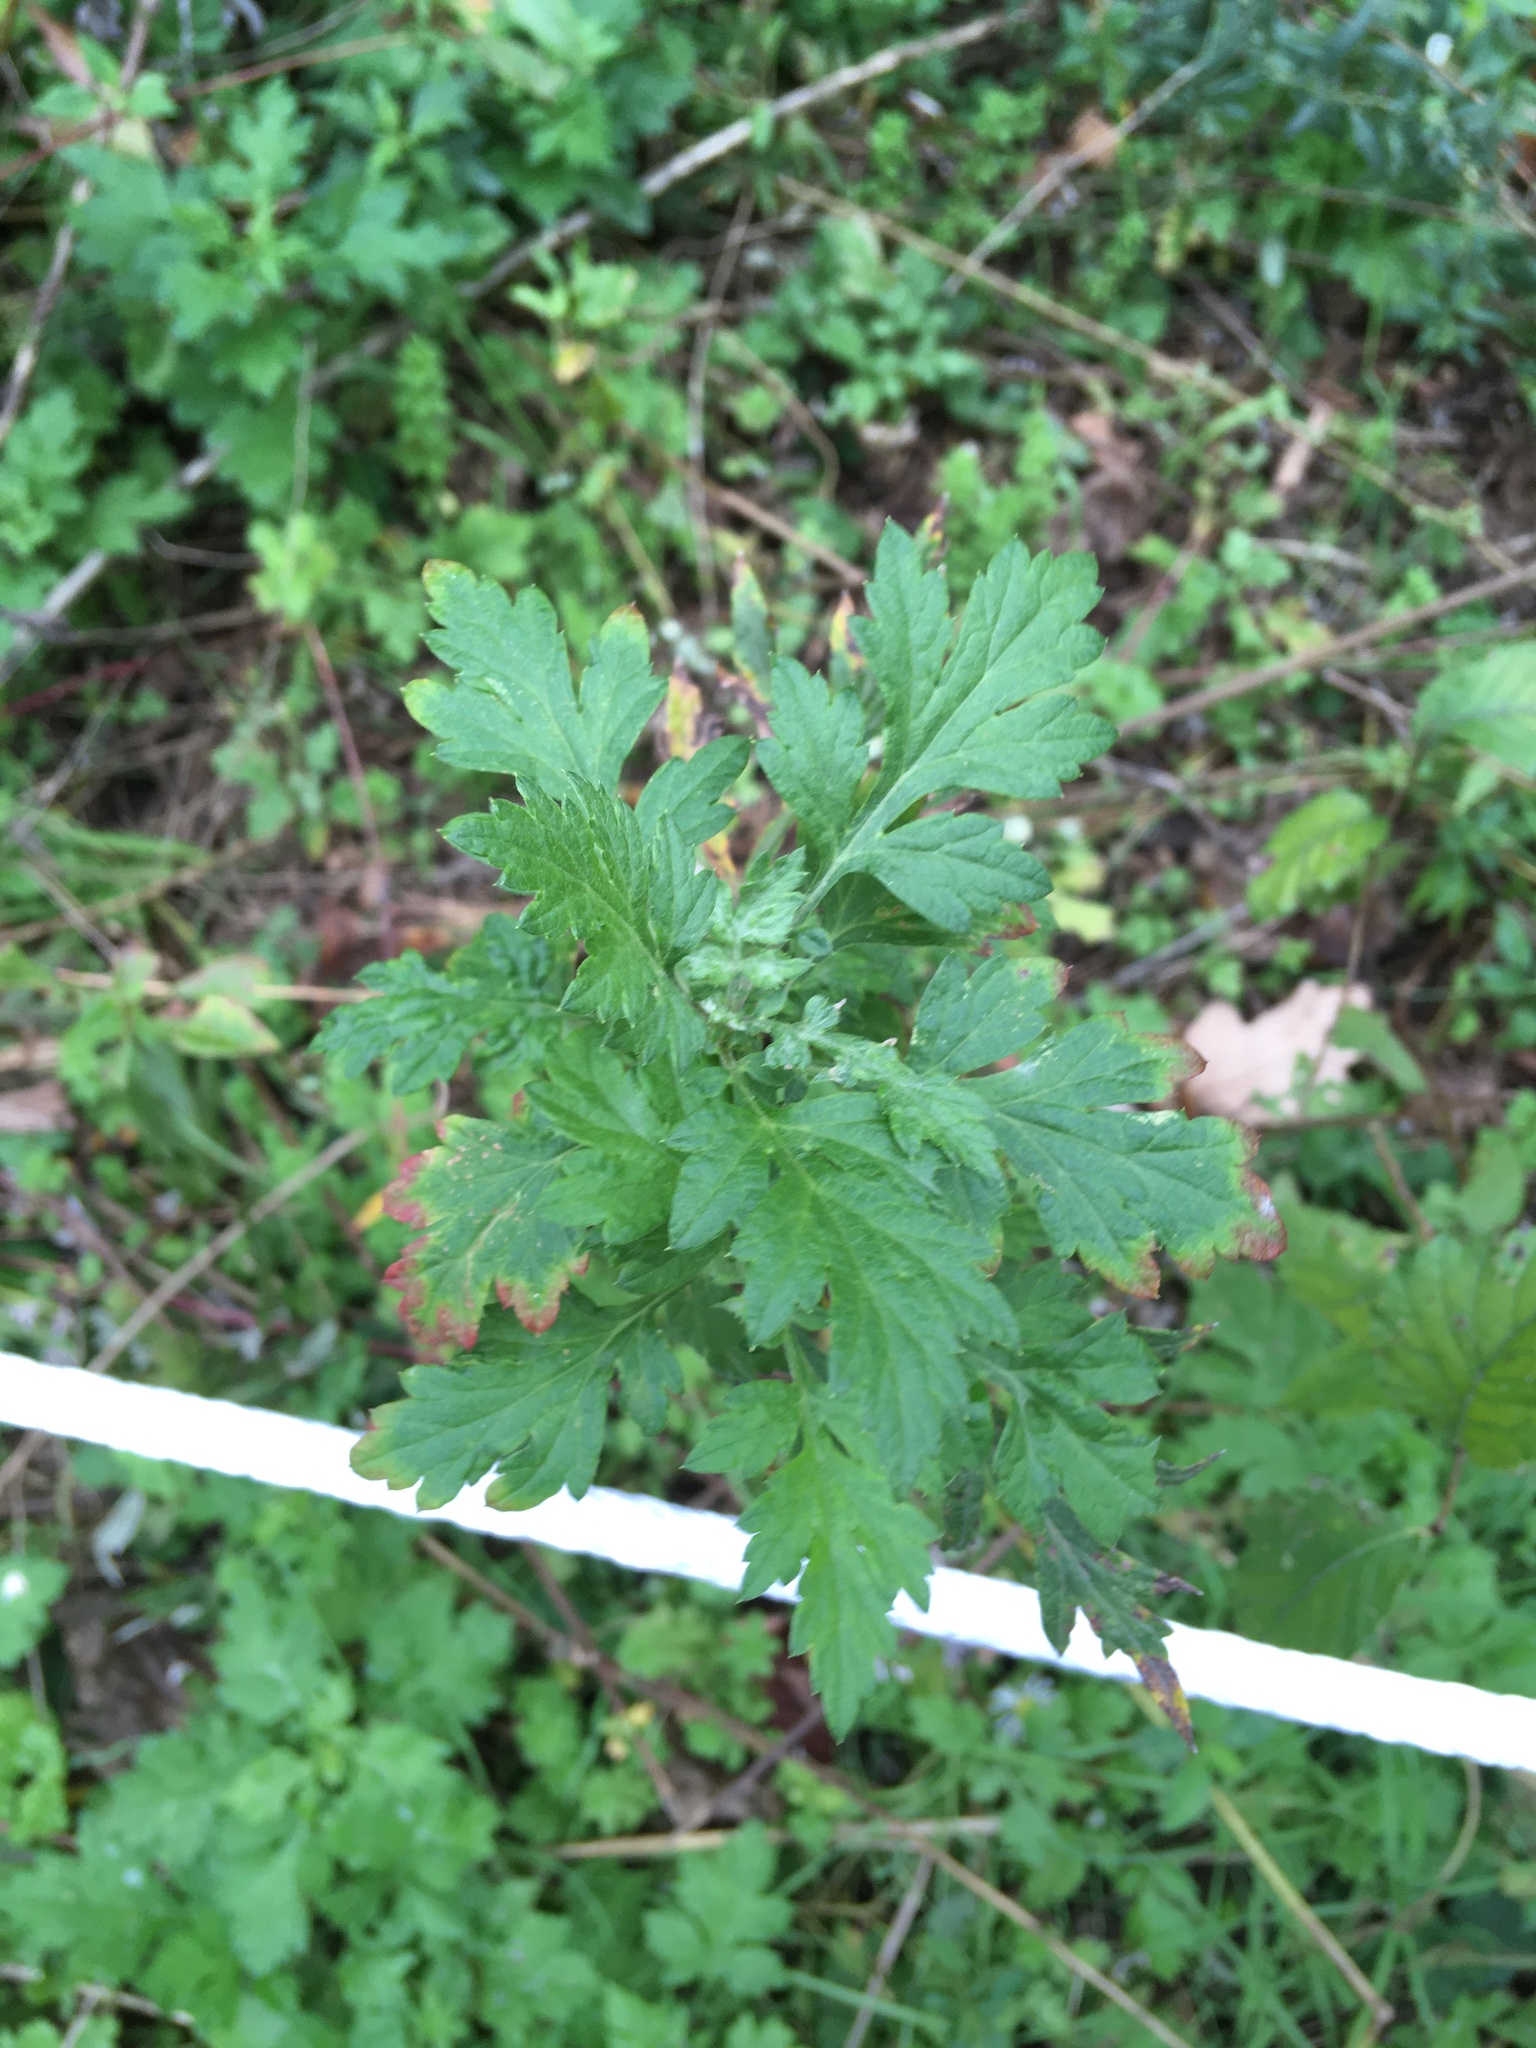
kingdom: Plantae
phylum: Tracheophyta
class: Magnoliopsida
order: Asterales
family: Asteraceae
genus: Artemisia
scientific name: Artemisia vulgaris
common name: Mugwort
